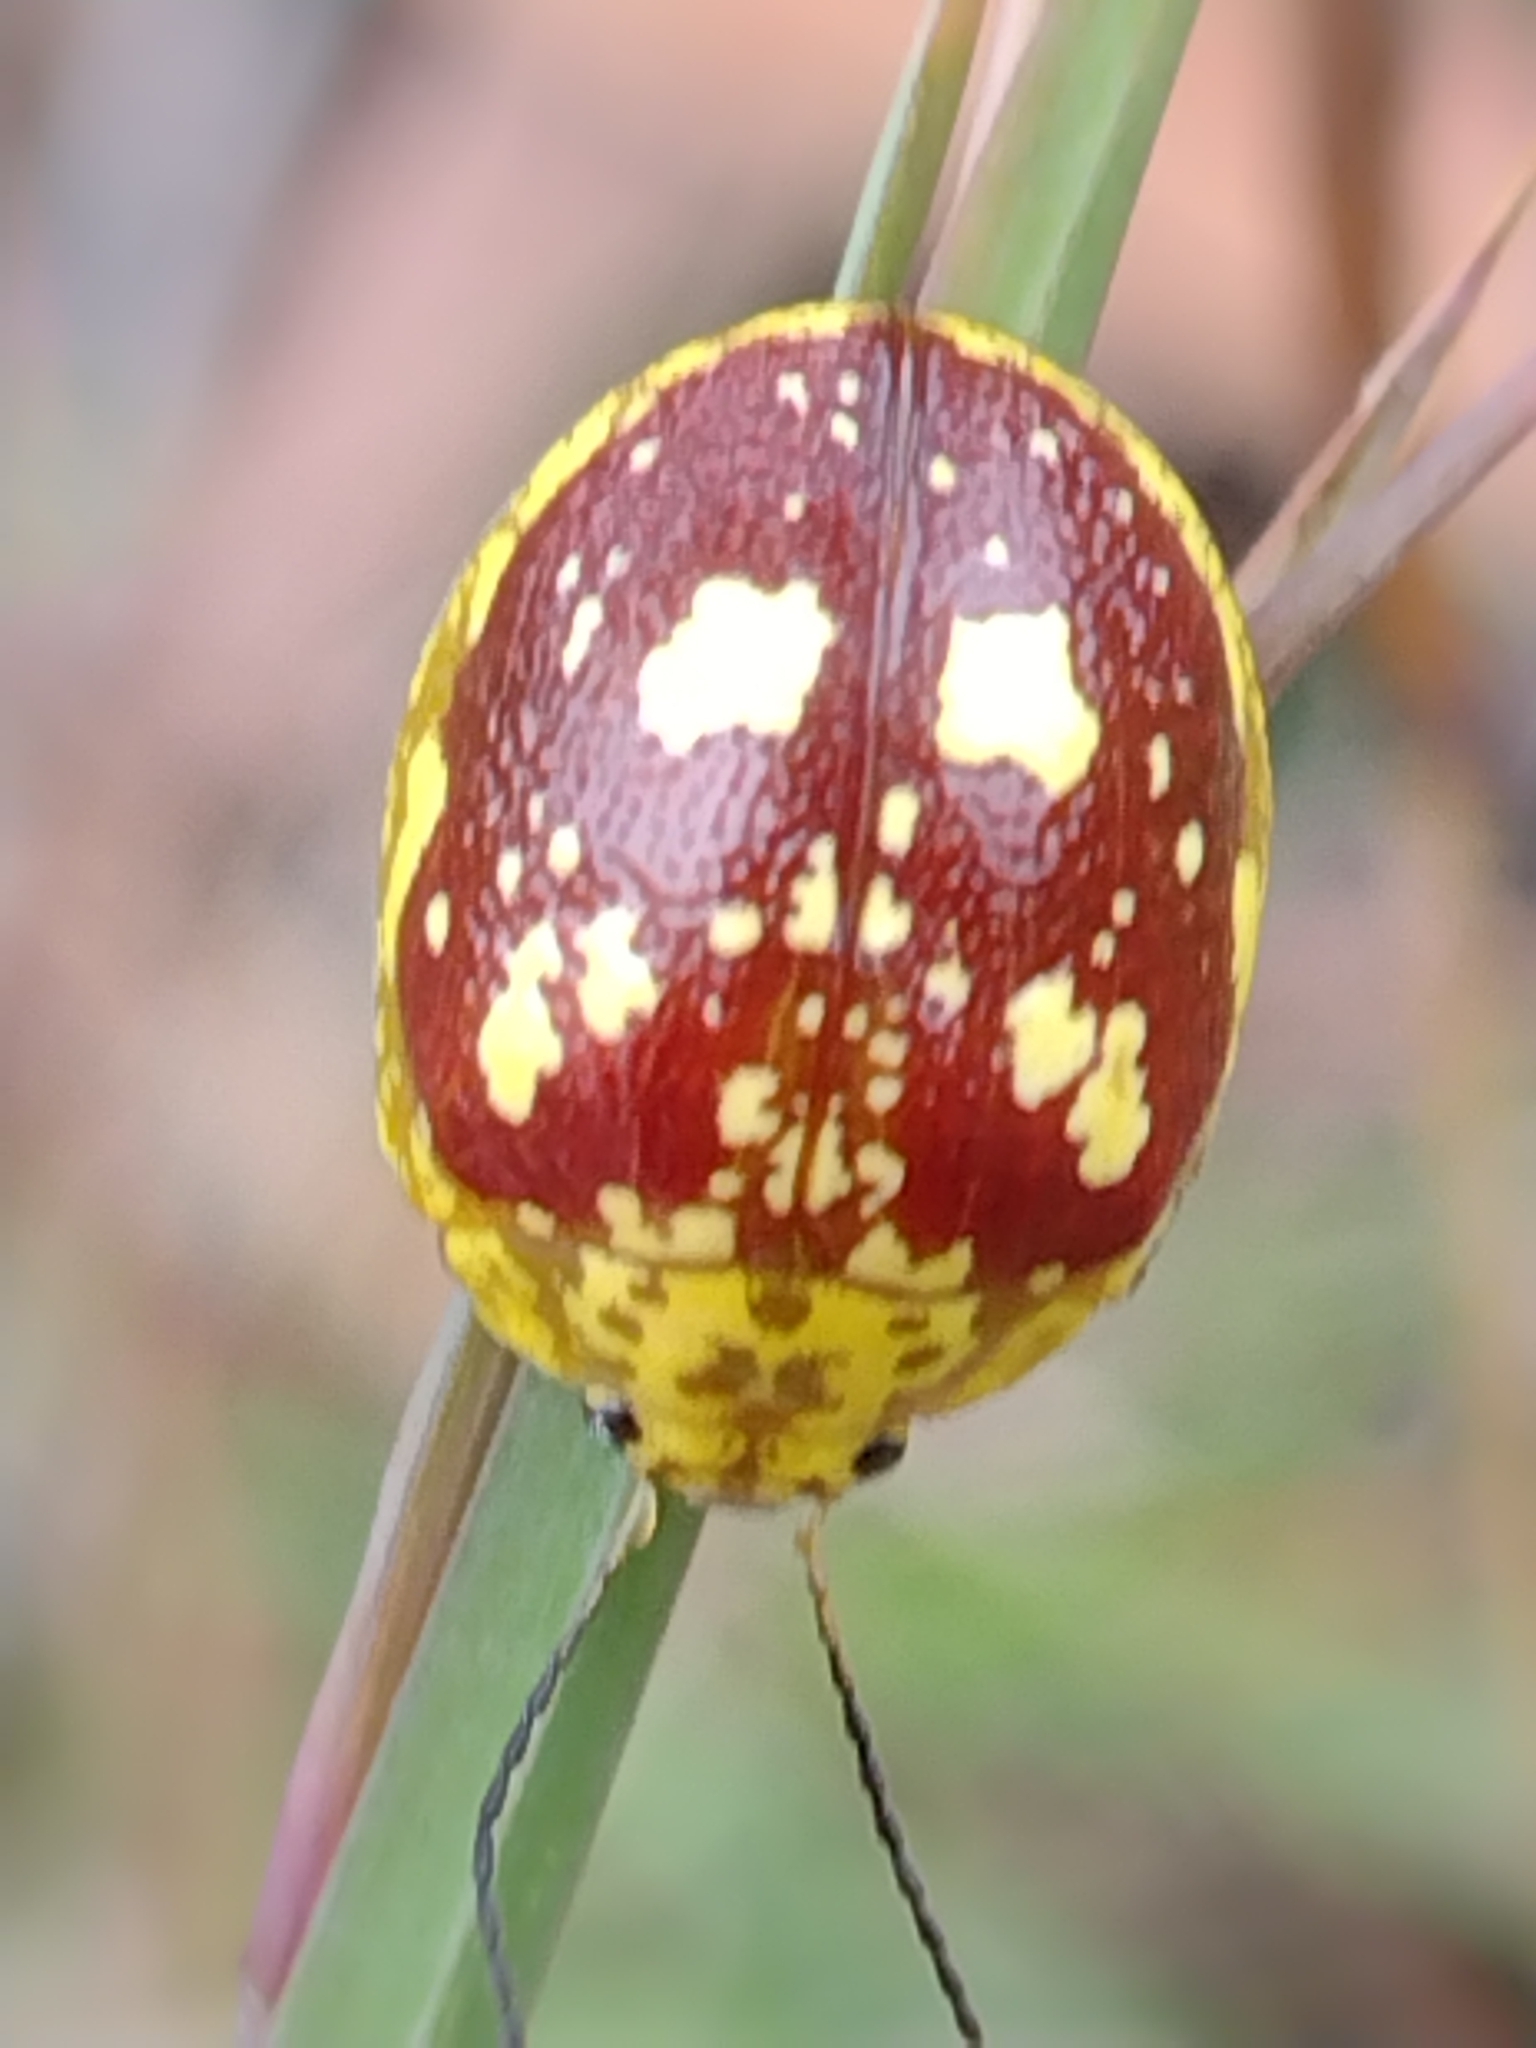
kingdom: Animalia
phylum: Arthropoda
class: Insecta
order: Coleoptera
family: Chrysomelidae
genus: Paropsis
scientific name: Paropsis maculata
